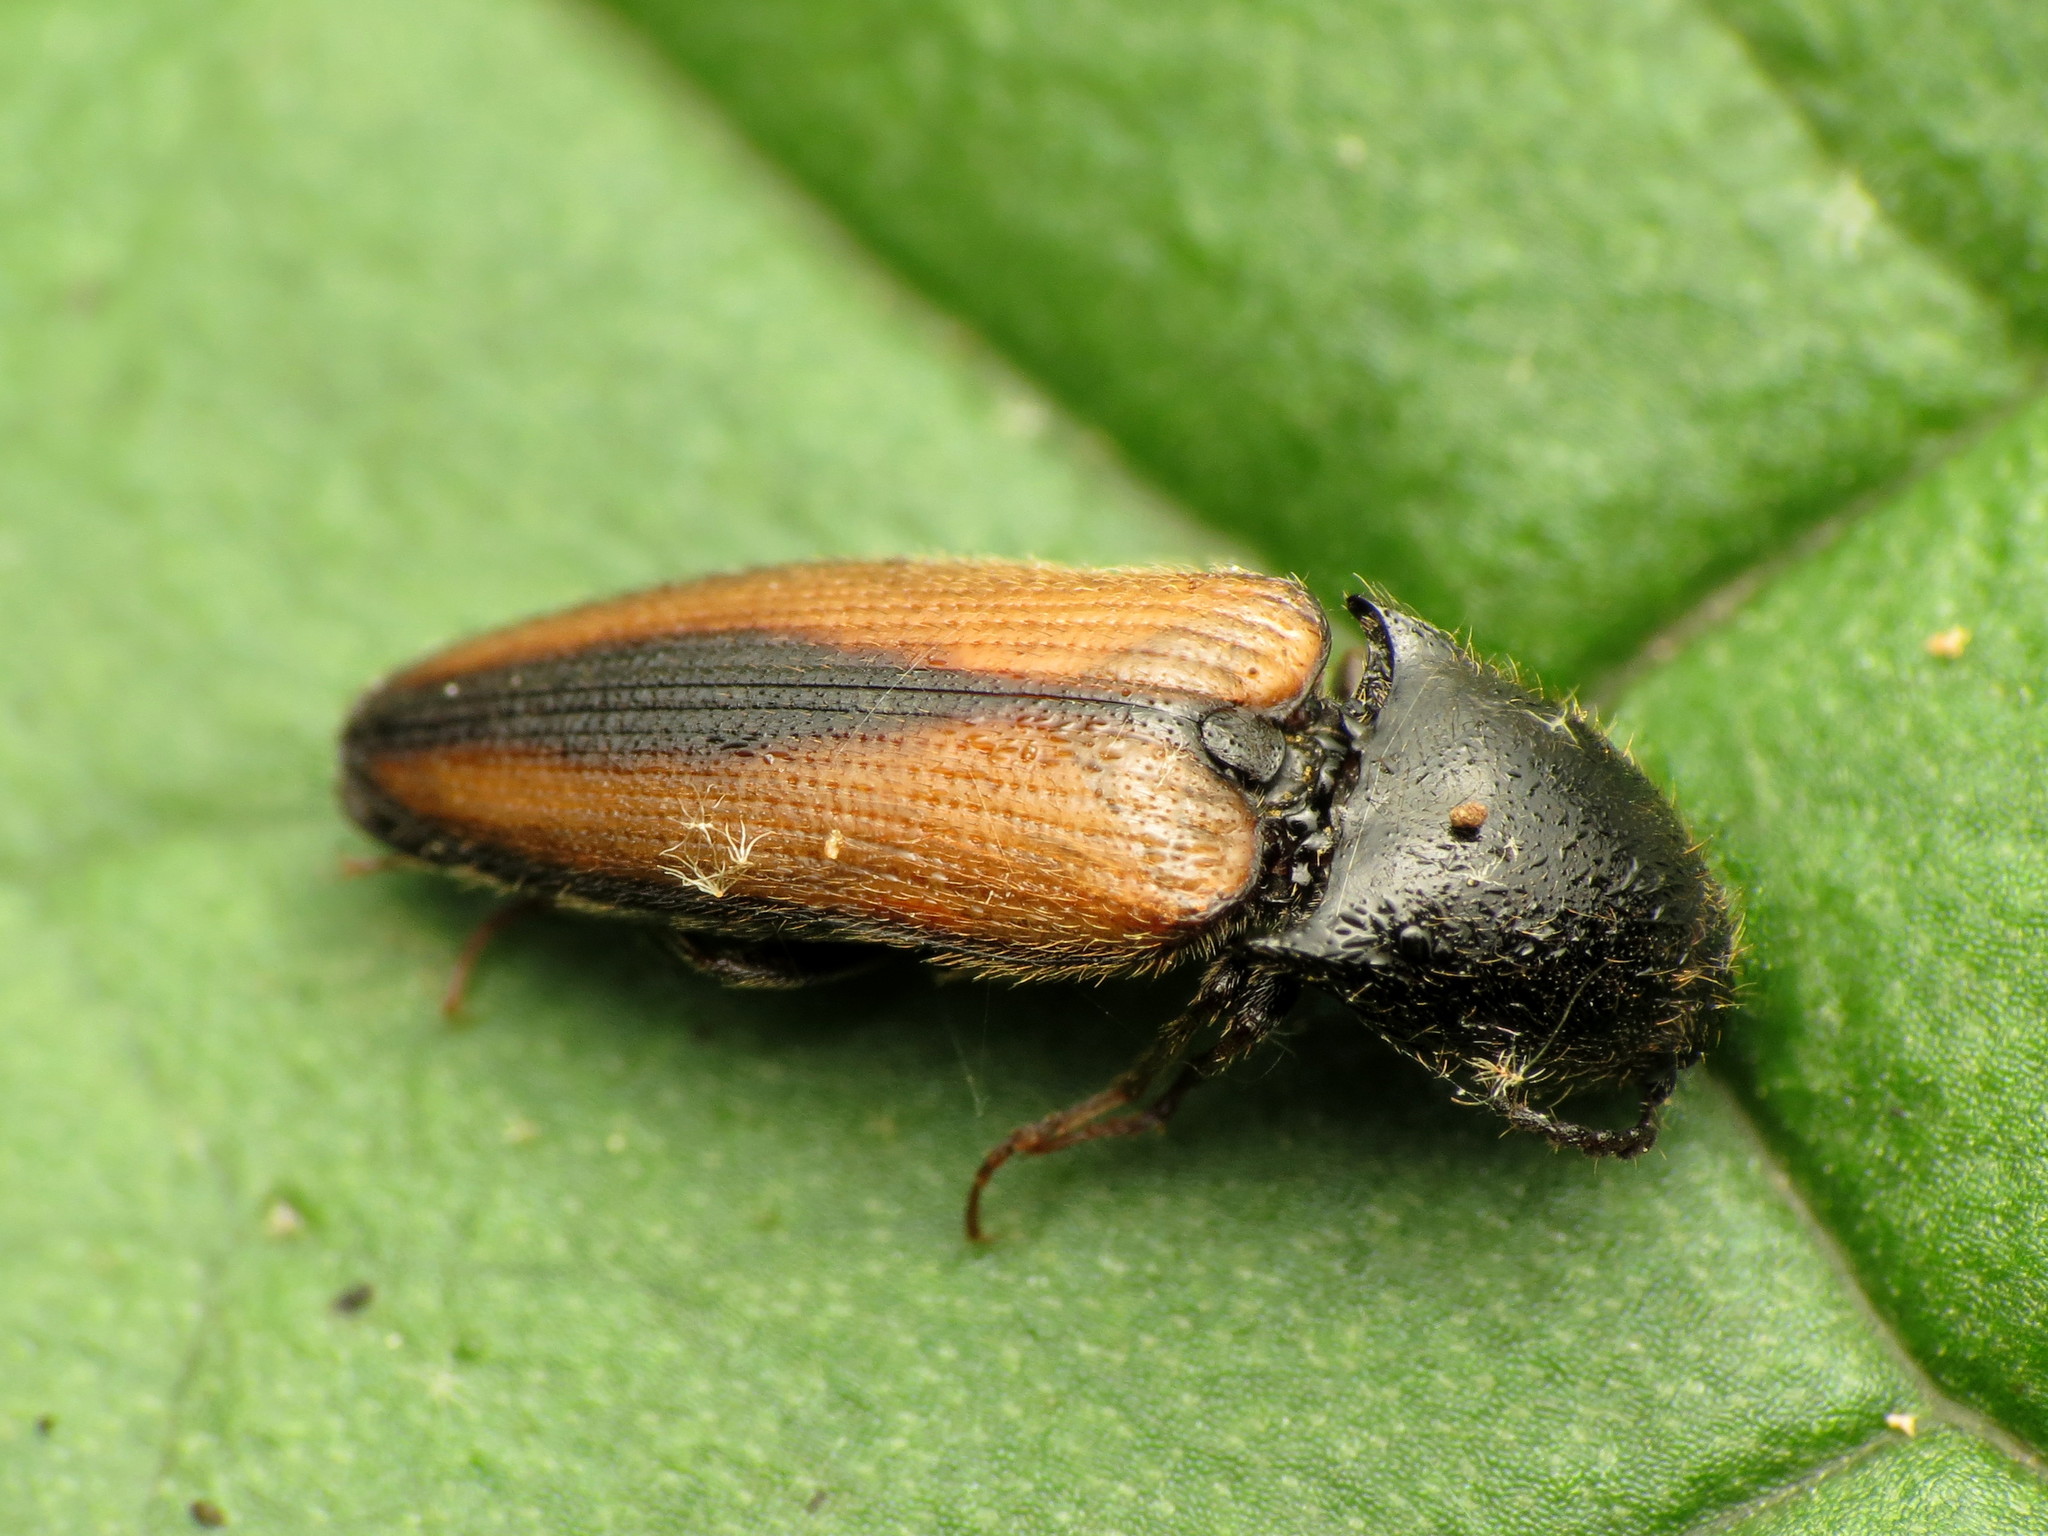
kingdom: Animalia
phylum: Arthropoda
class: Insecta
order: Coleoptera
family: Elateridae
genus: Ampedus
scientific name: Ampedus militaris
